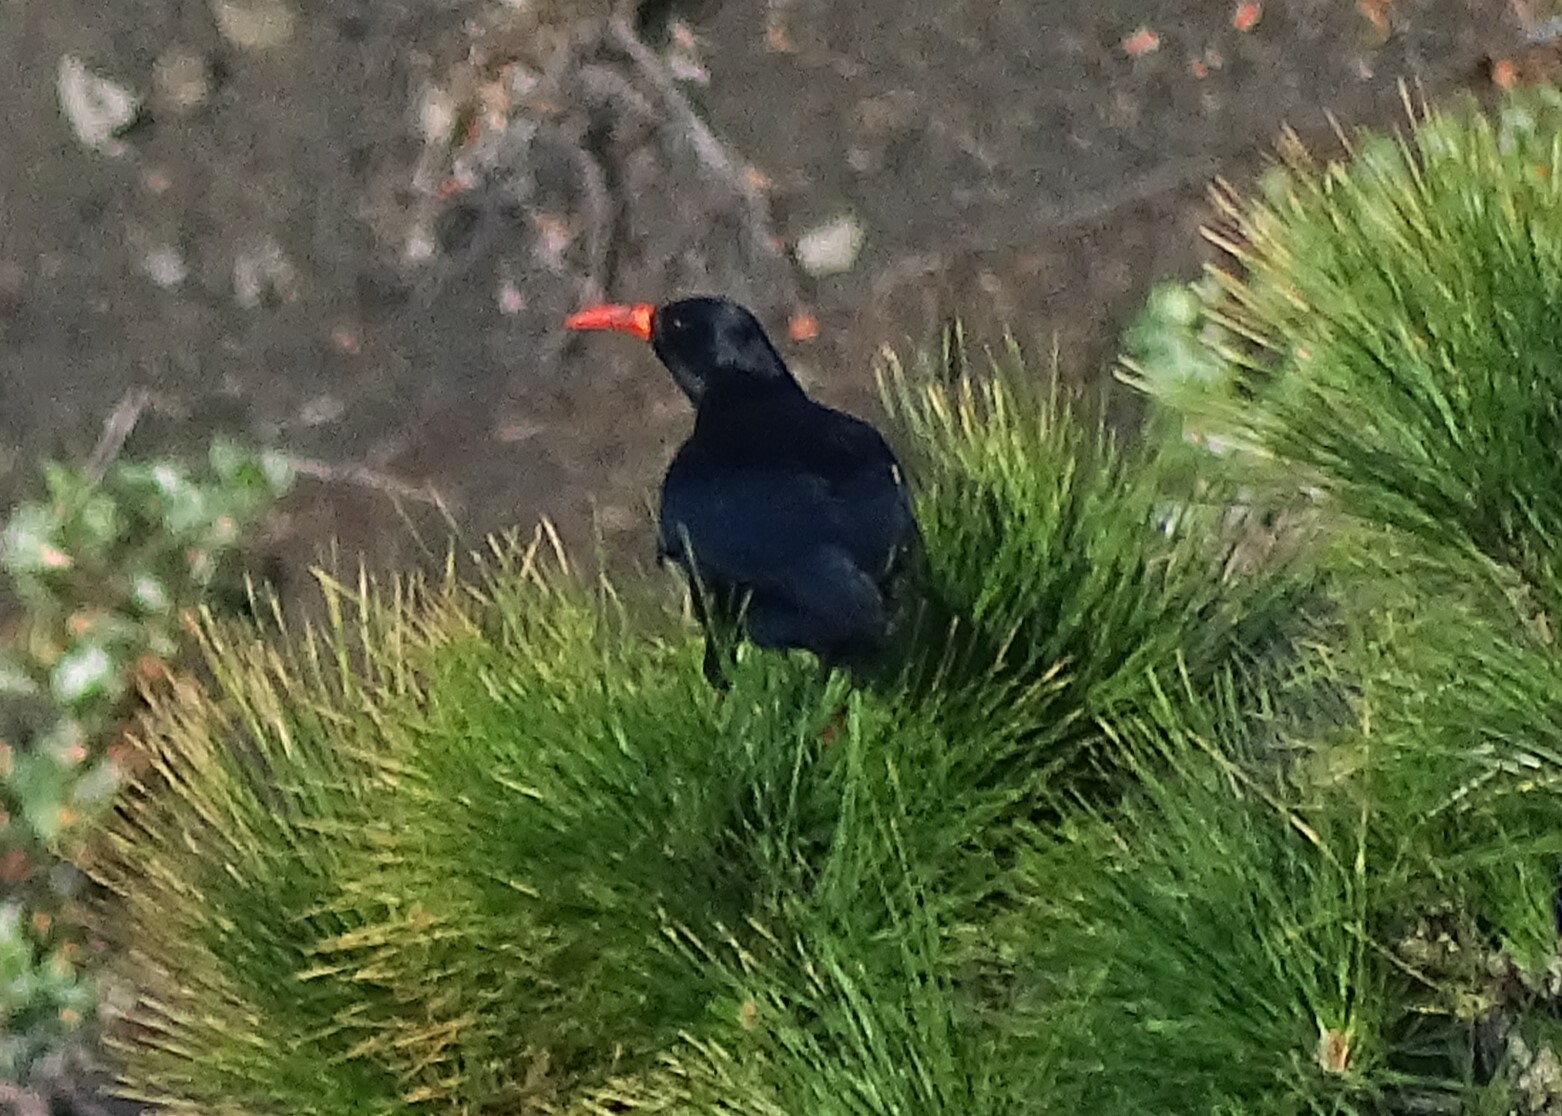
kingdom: Animalia
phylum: Chordata
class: Aves
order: Passeriformes
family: Corvidae
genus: Pyrrhocorax
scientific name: Pyrrhocorax pyrrhocorax
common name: Red-billed chough
